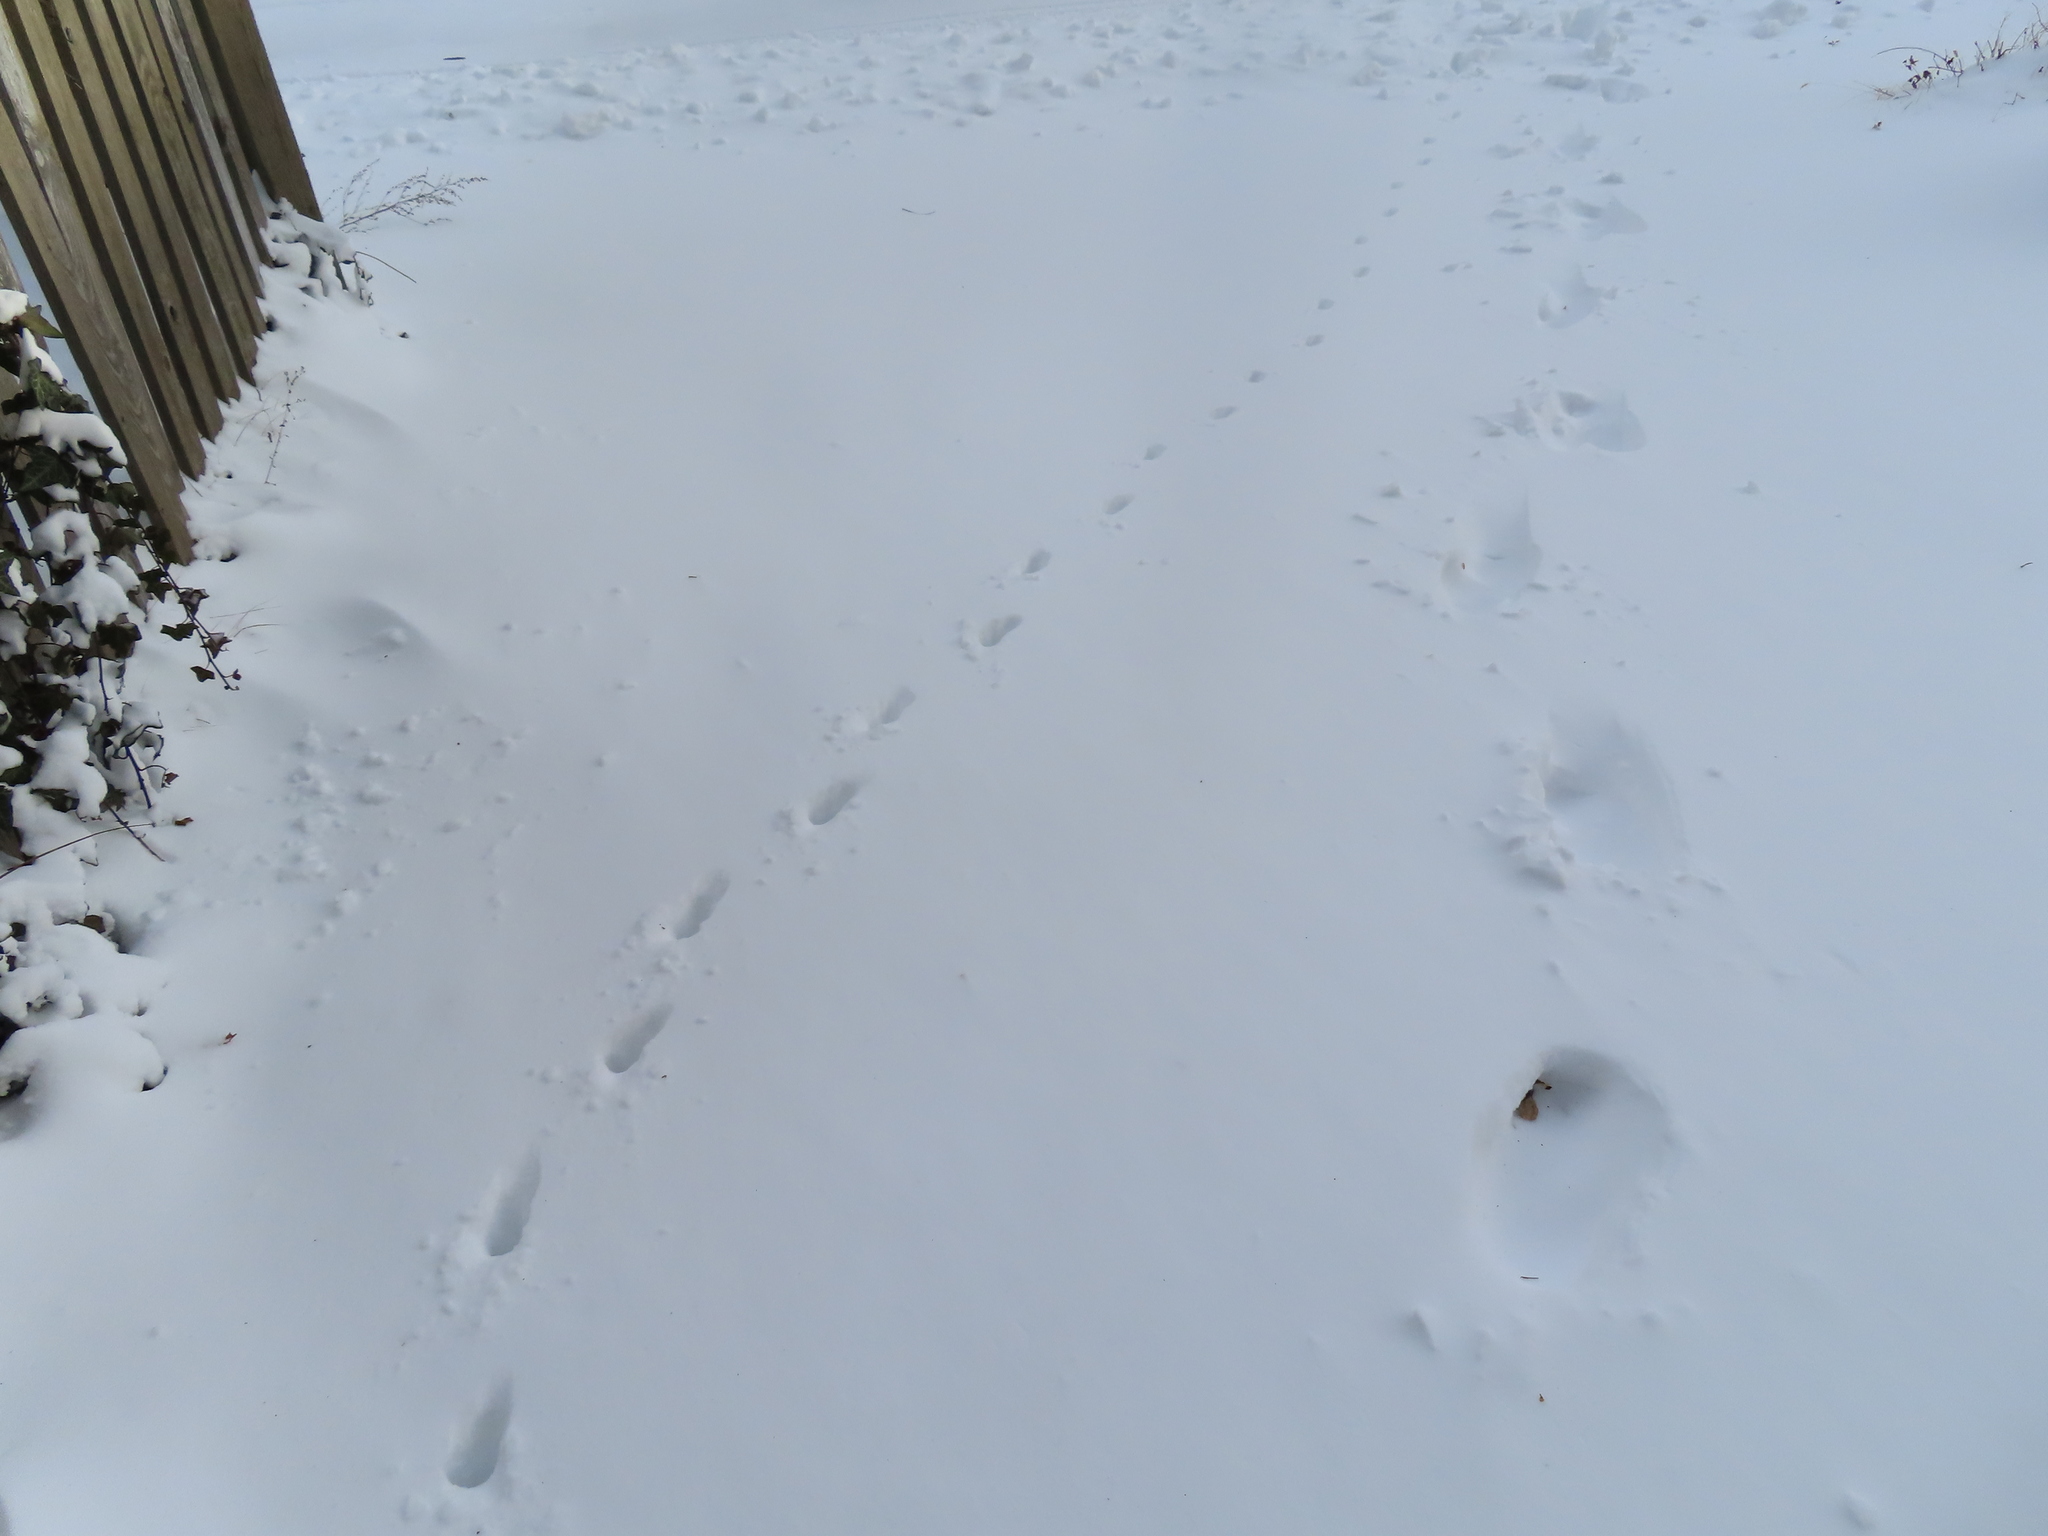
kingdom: Animalia
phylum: Chordata
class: Mammalia
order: Carnivora
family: Felidae
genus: Felis
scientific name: Felis catus
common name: Domestic cat
